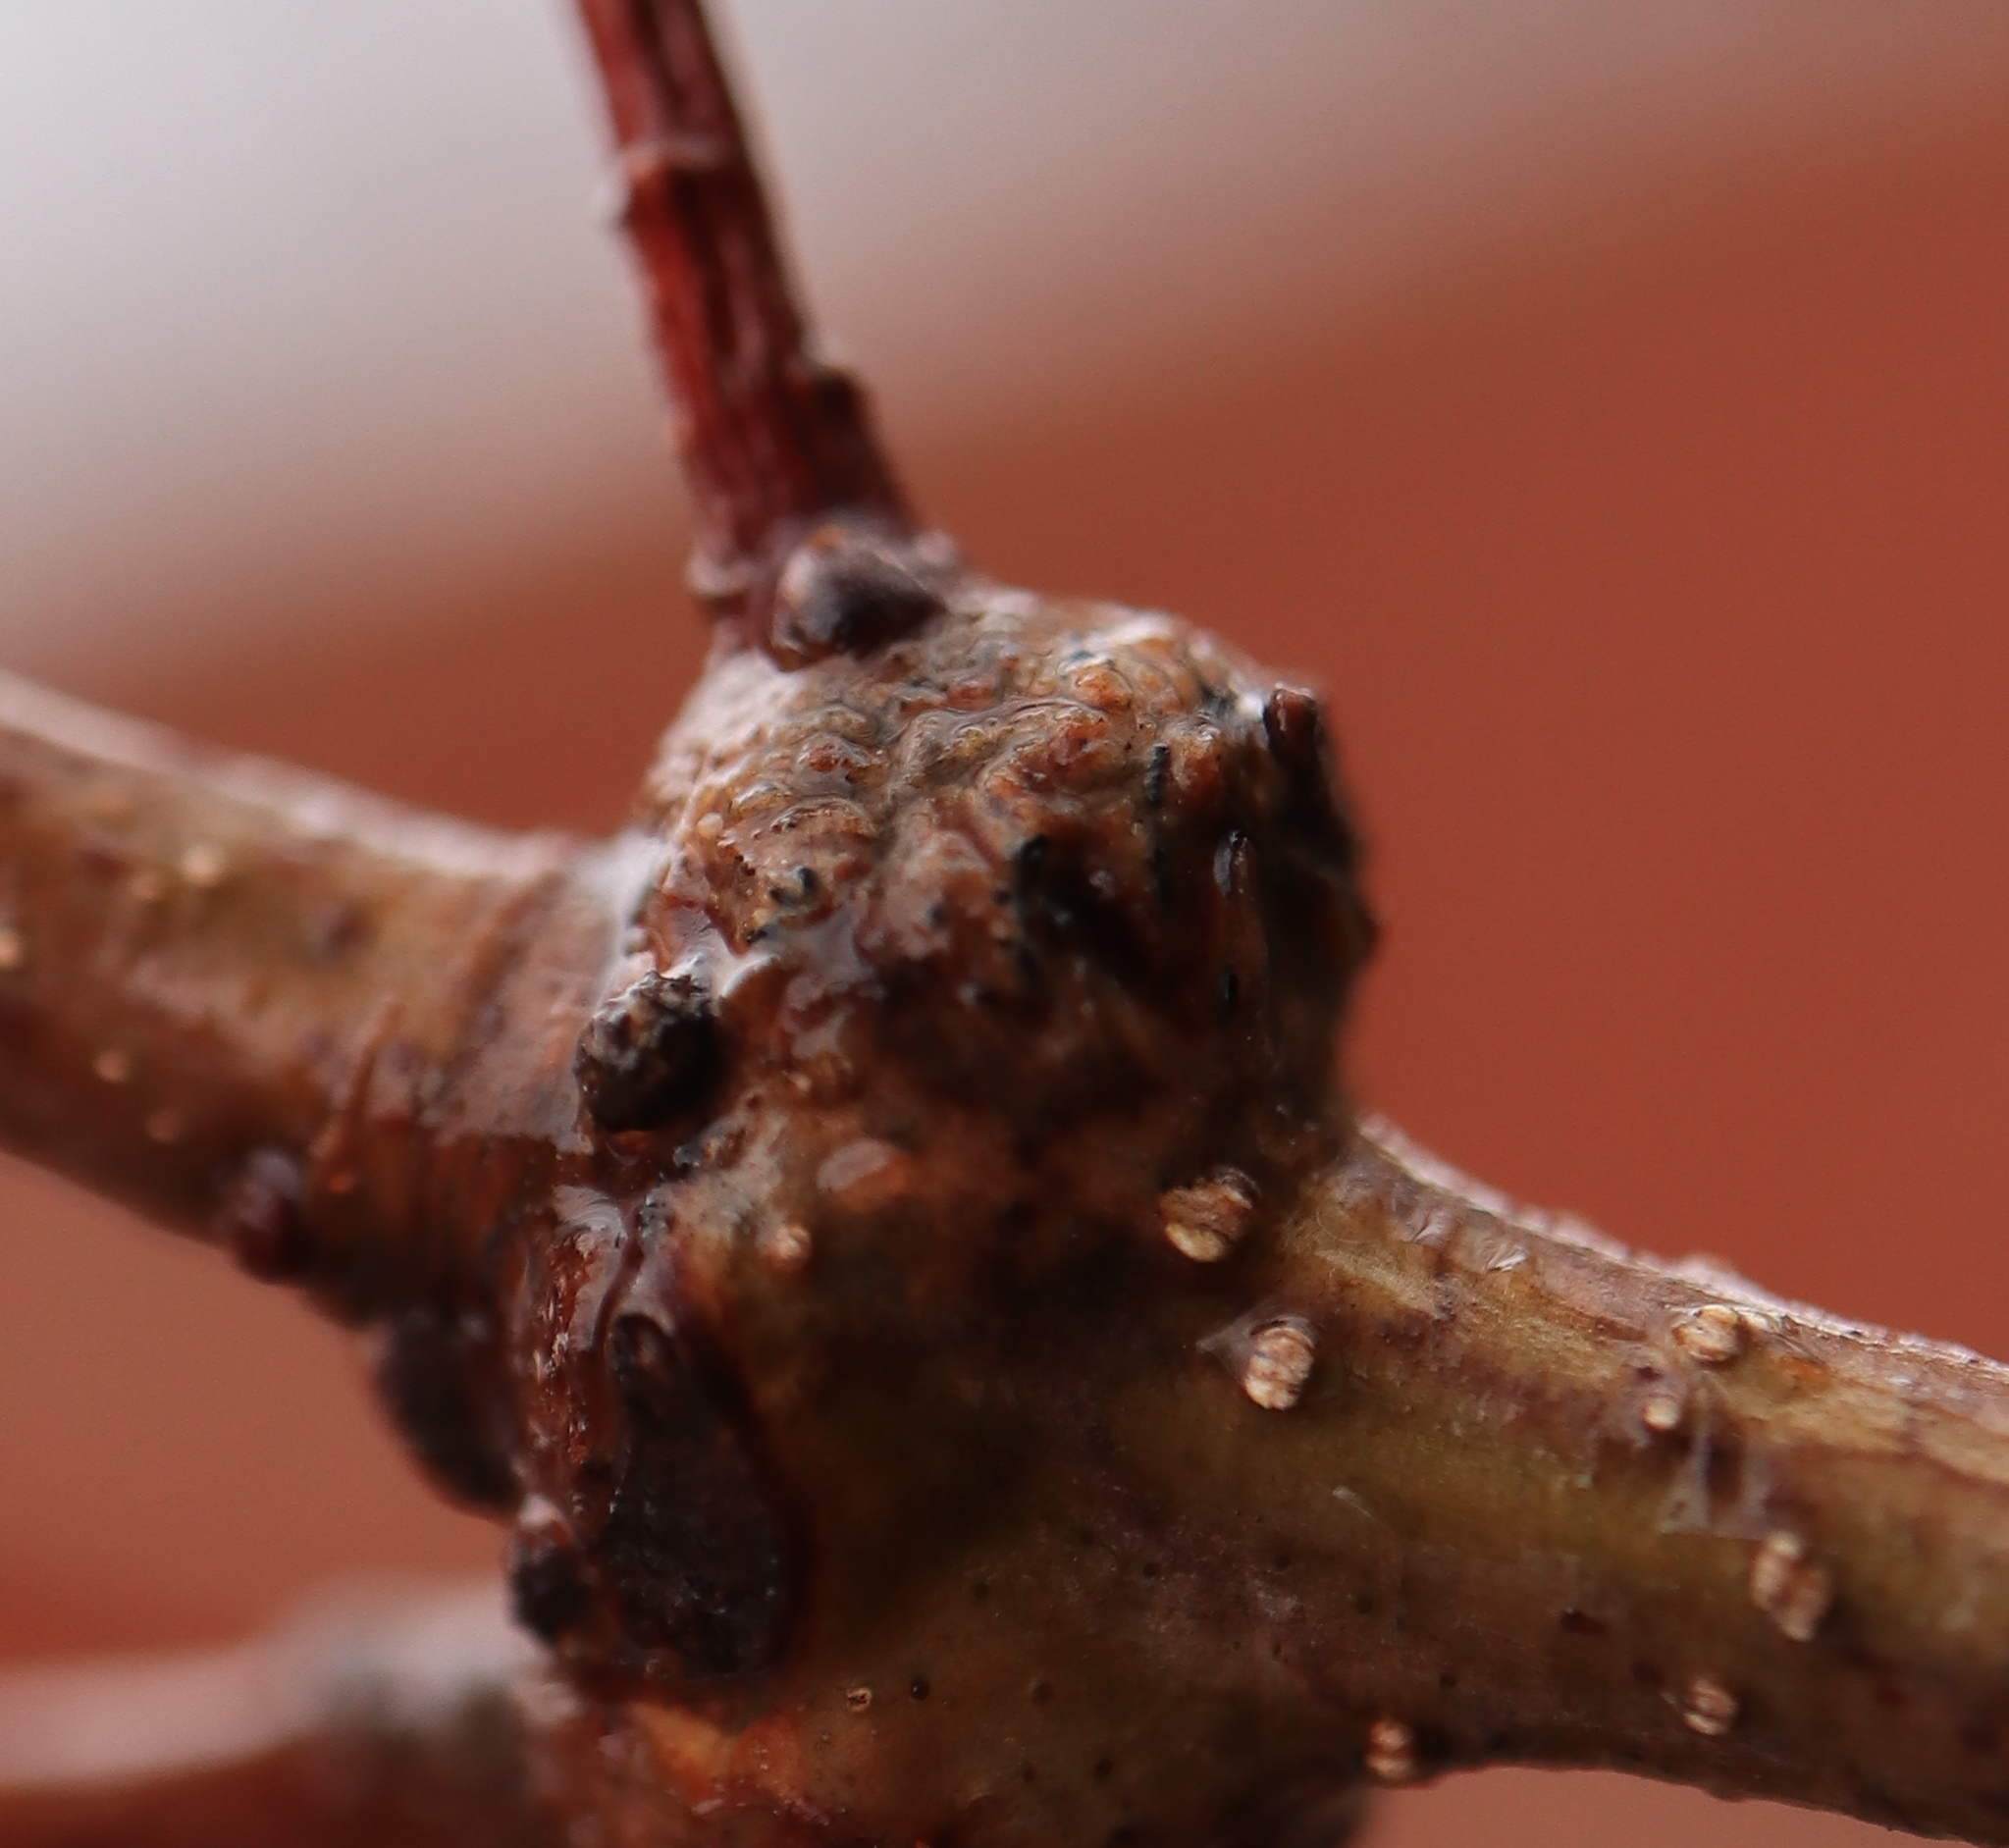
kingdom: Animalia
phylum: Arthropoda
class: Insecta
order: Hymenoptera
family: Cynipidae
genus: Loxaulus
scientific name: Loxaulus
